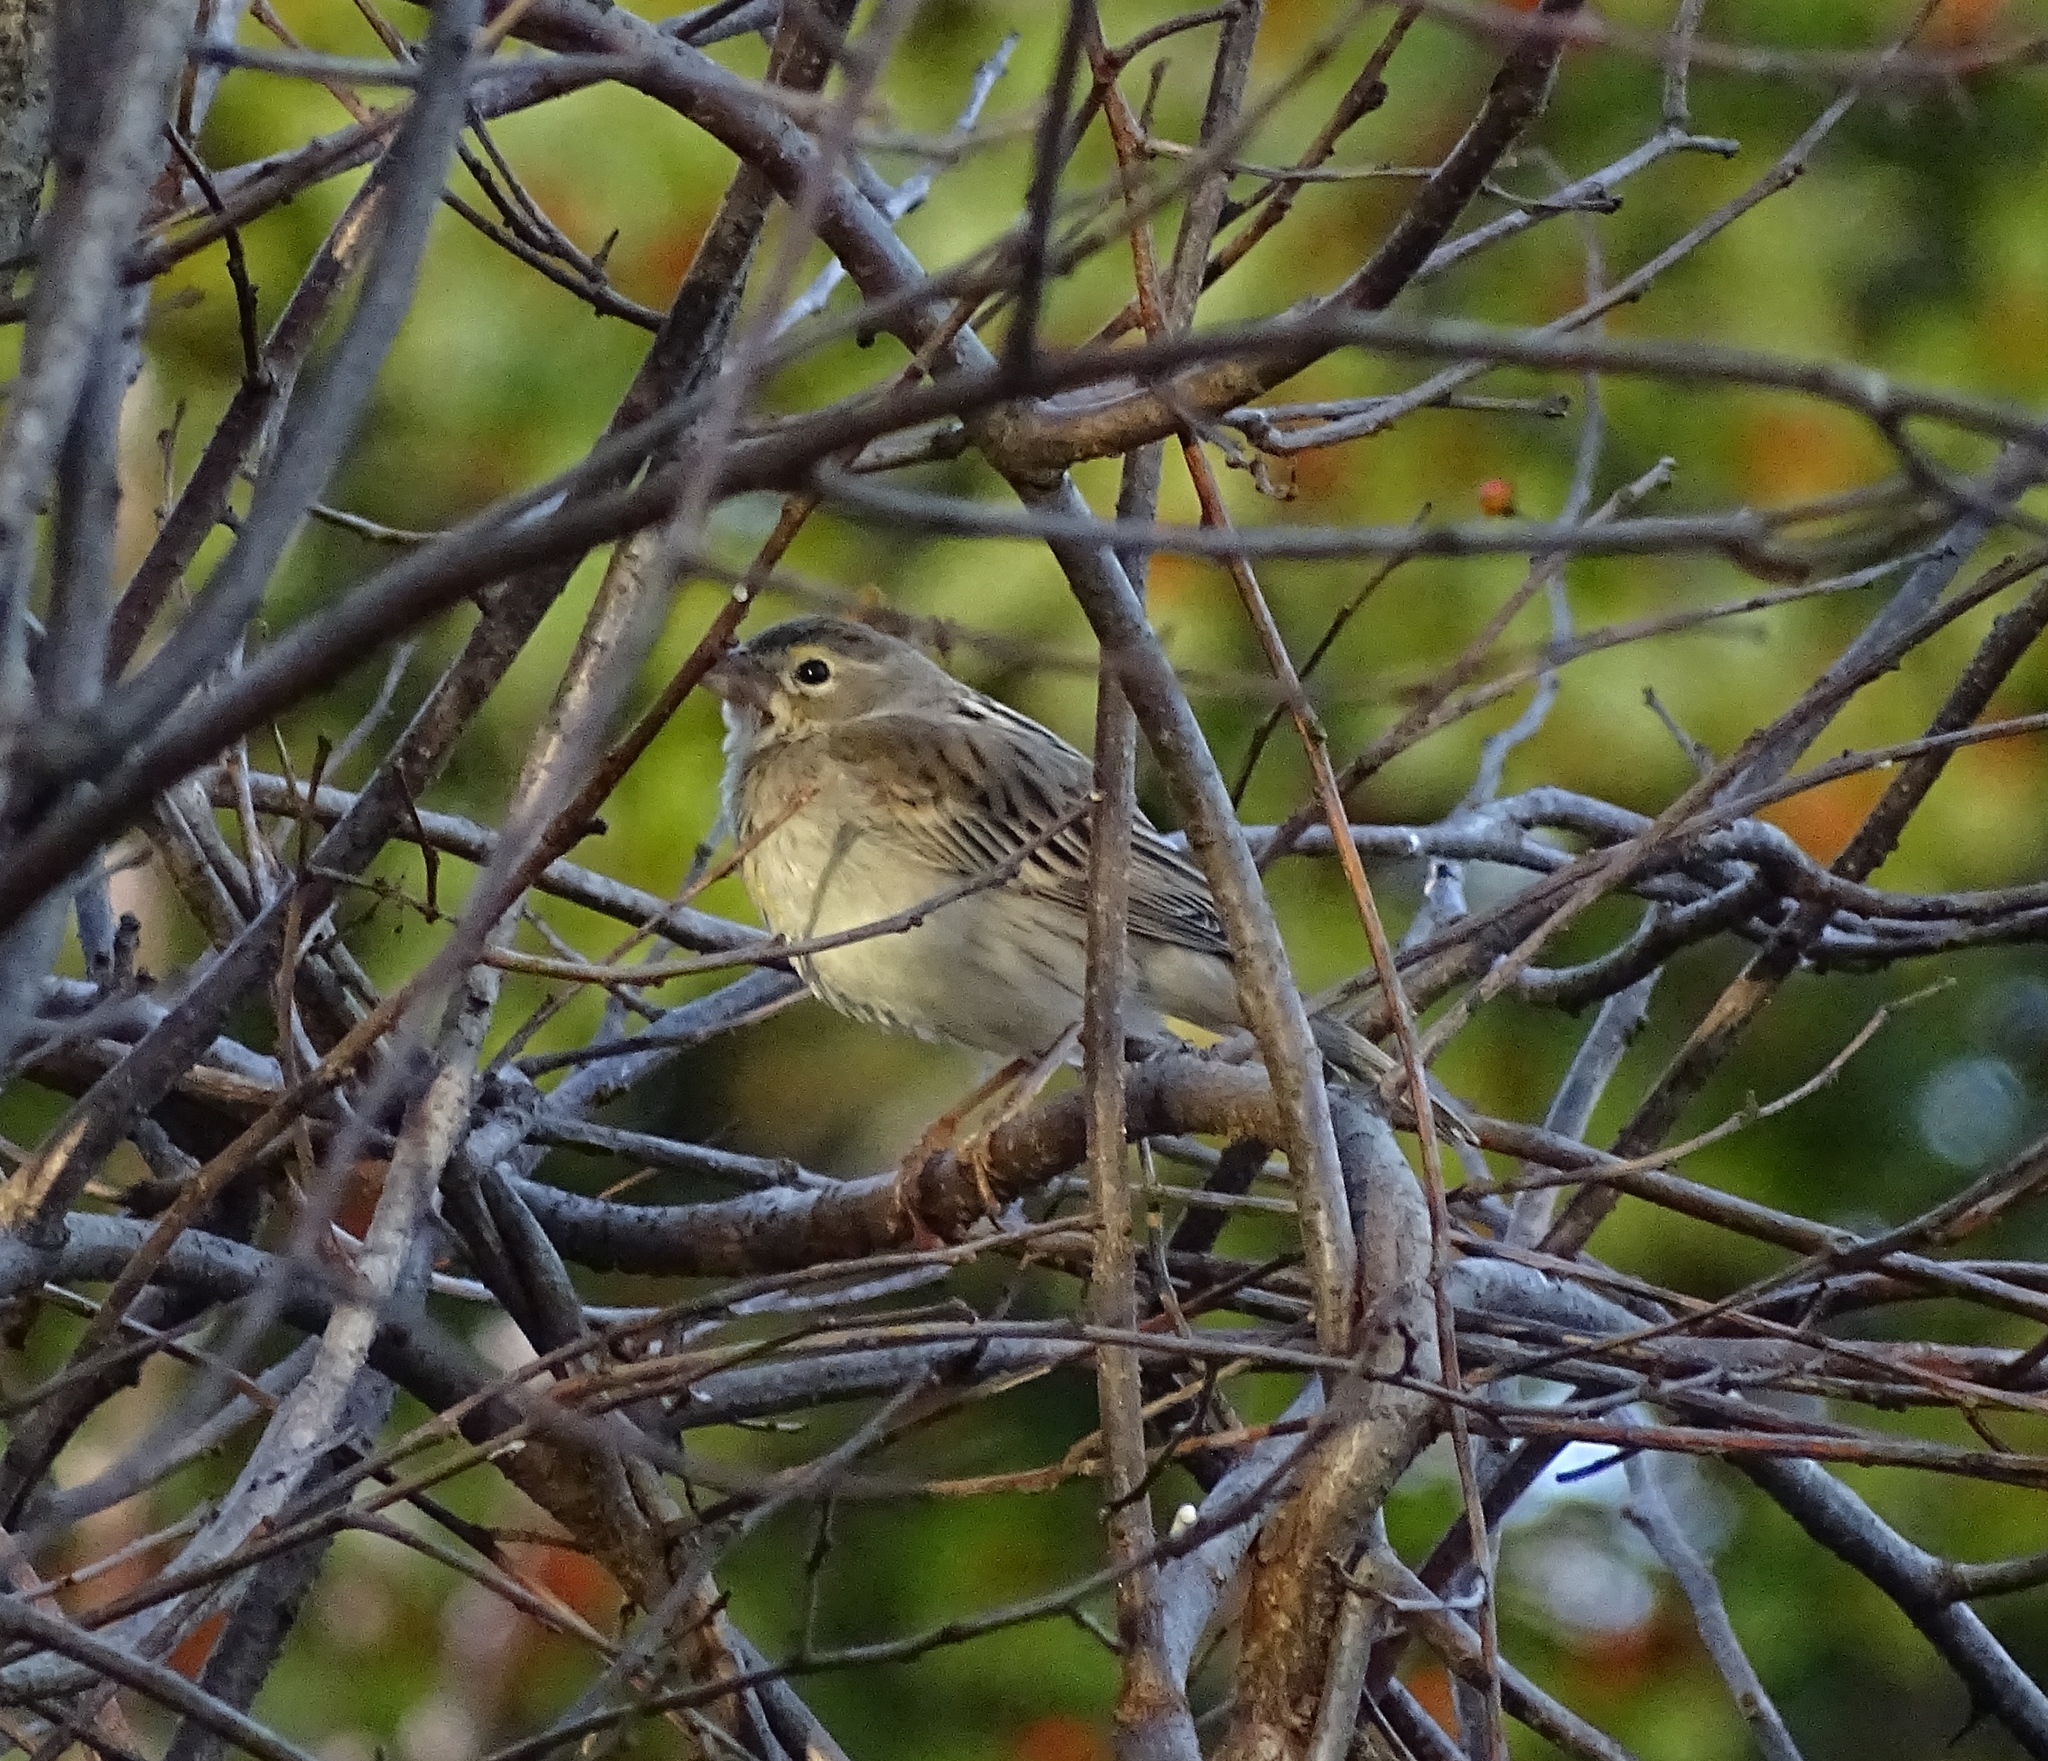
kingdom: Animalia
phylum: Chordata
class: Aves
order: Passeriformes
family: Cardinalidae
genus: Spiza
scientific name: Spiza americana
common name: Dickcissel
